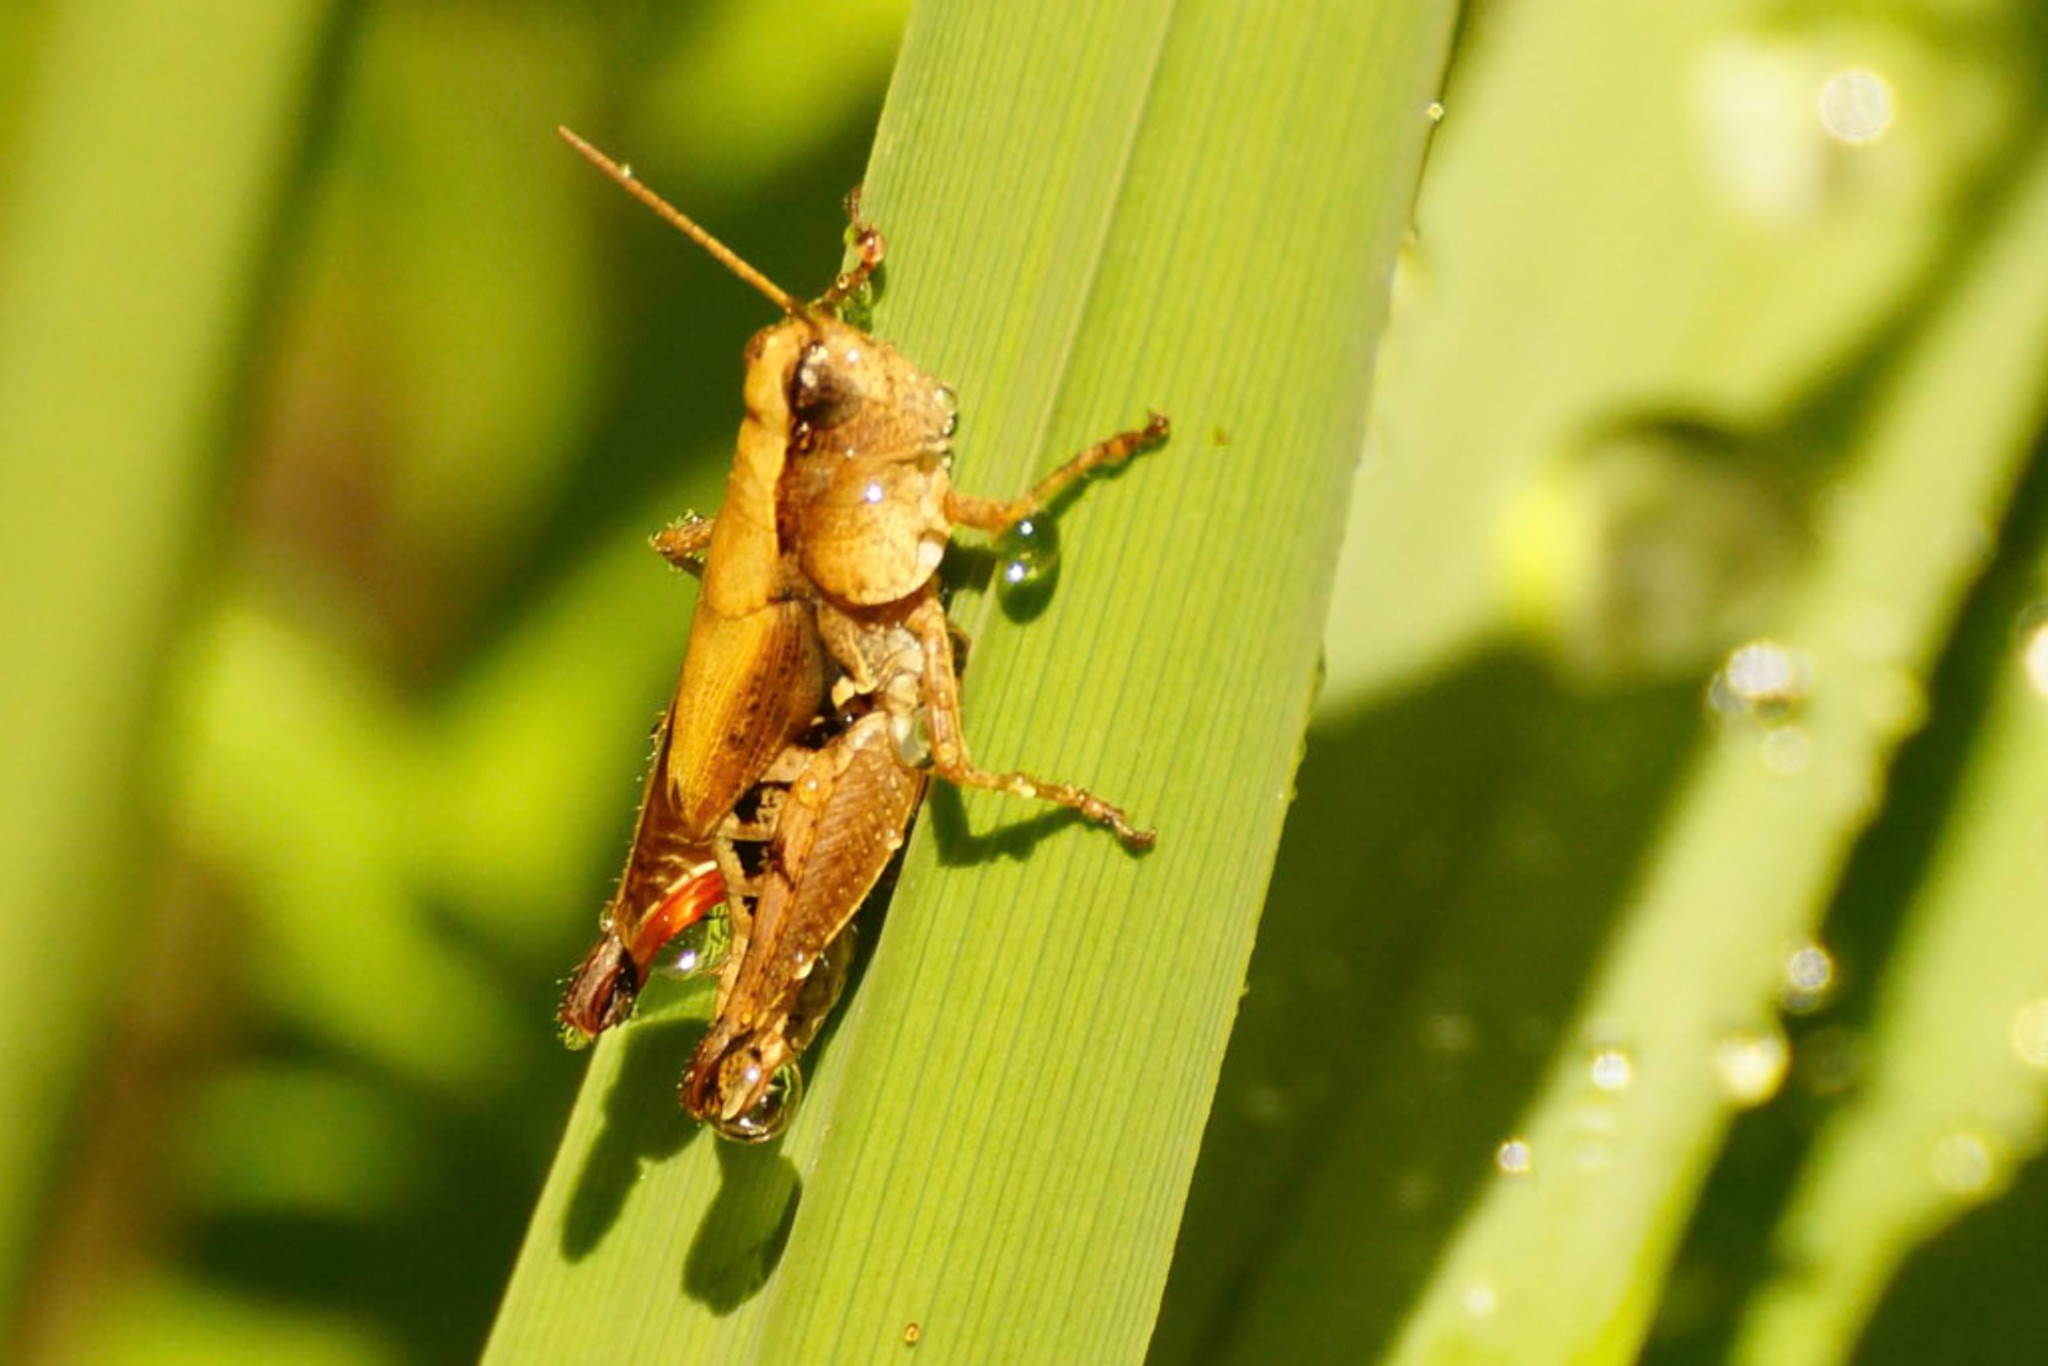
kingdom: Animalia
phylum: Arthropoda
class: Insecta
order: Orthoptera
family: Acrididae
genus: Phaulacridium
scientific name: Phaulacridium vittatum
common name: Wingless grasshopper
